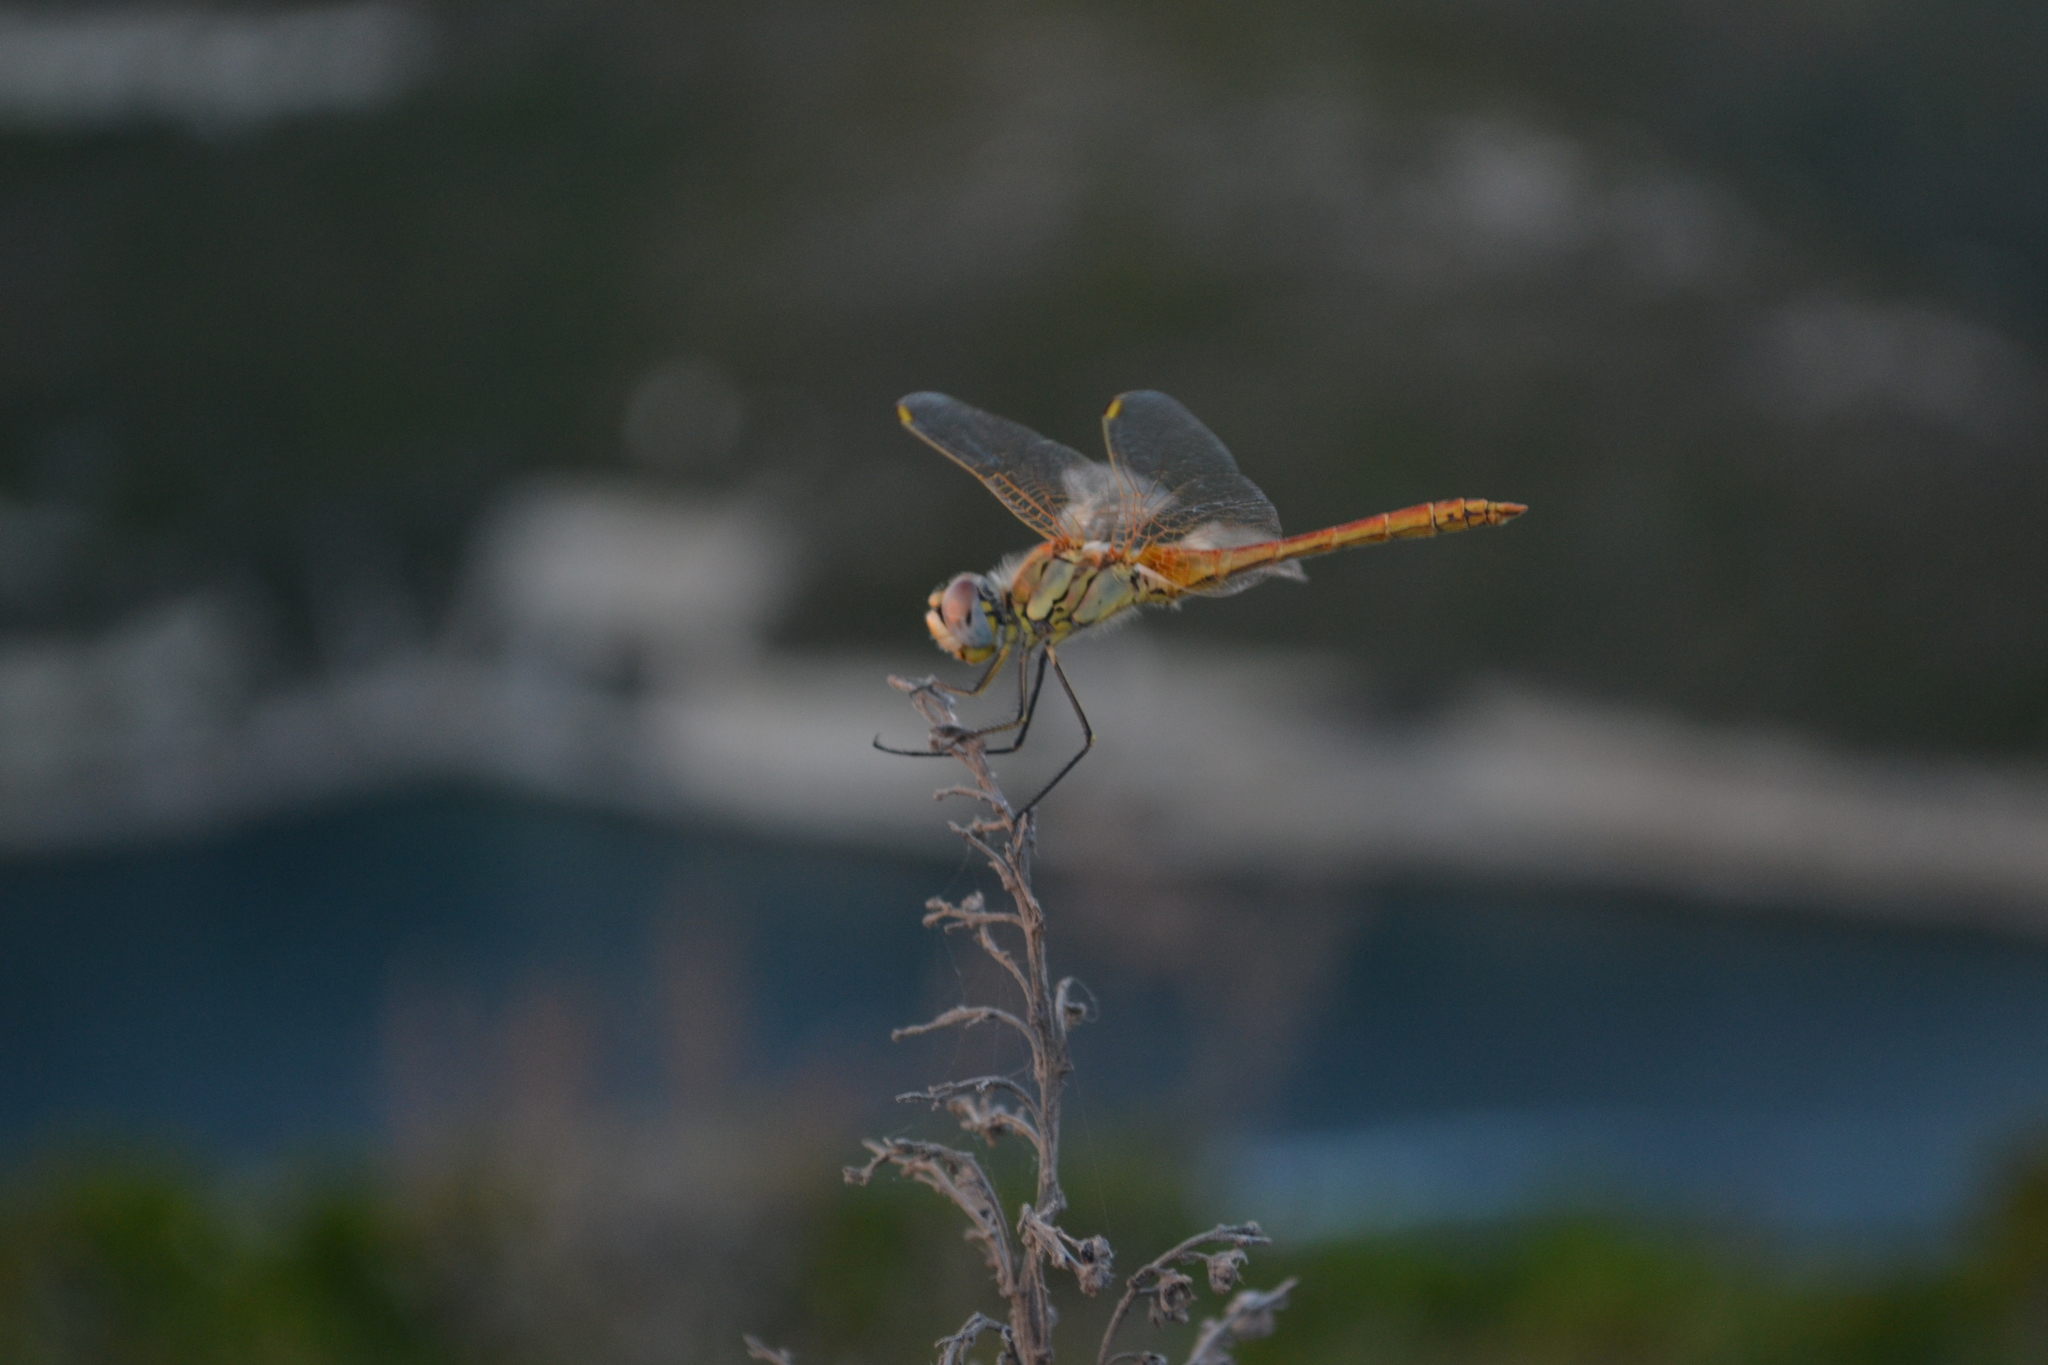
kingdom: Animalia
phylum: Arthropoda
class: Insecta
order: Odonata
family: Libellulidae
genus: Sympetrum
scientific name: Sympetrum fonscolombii
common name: Red-veined darter
